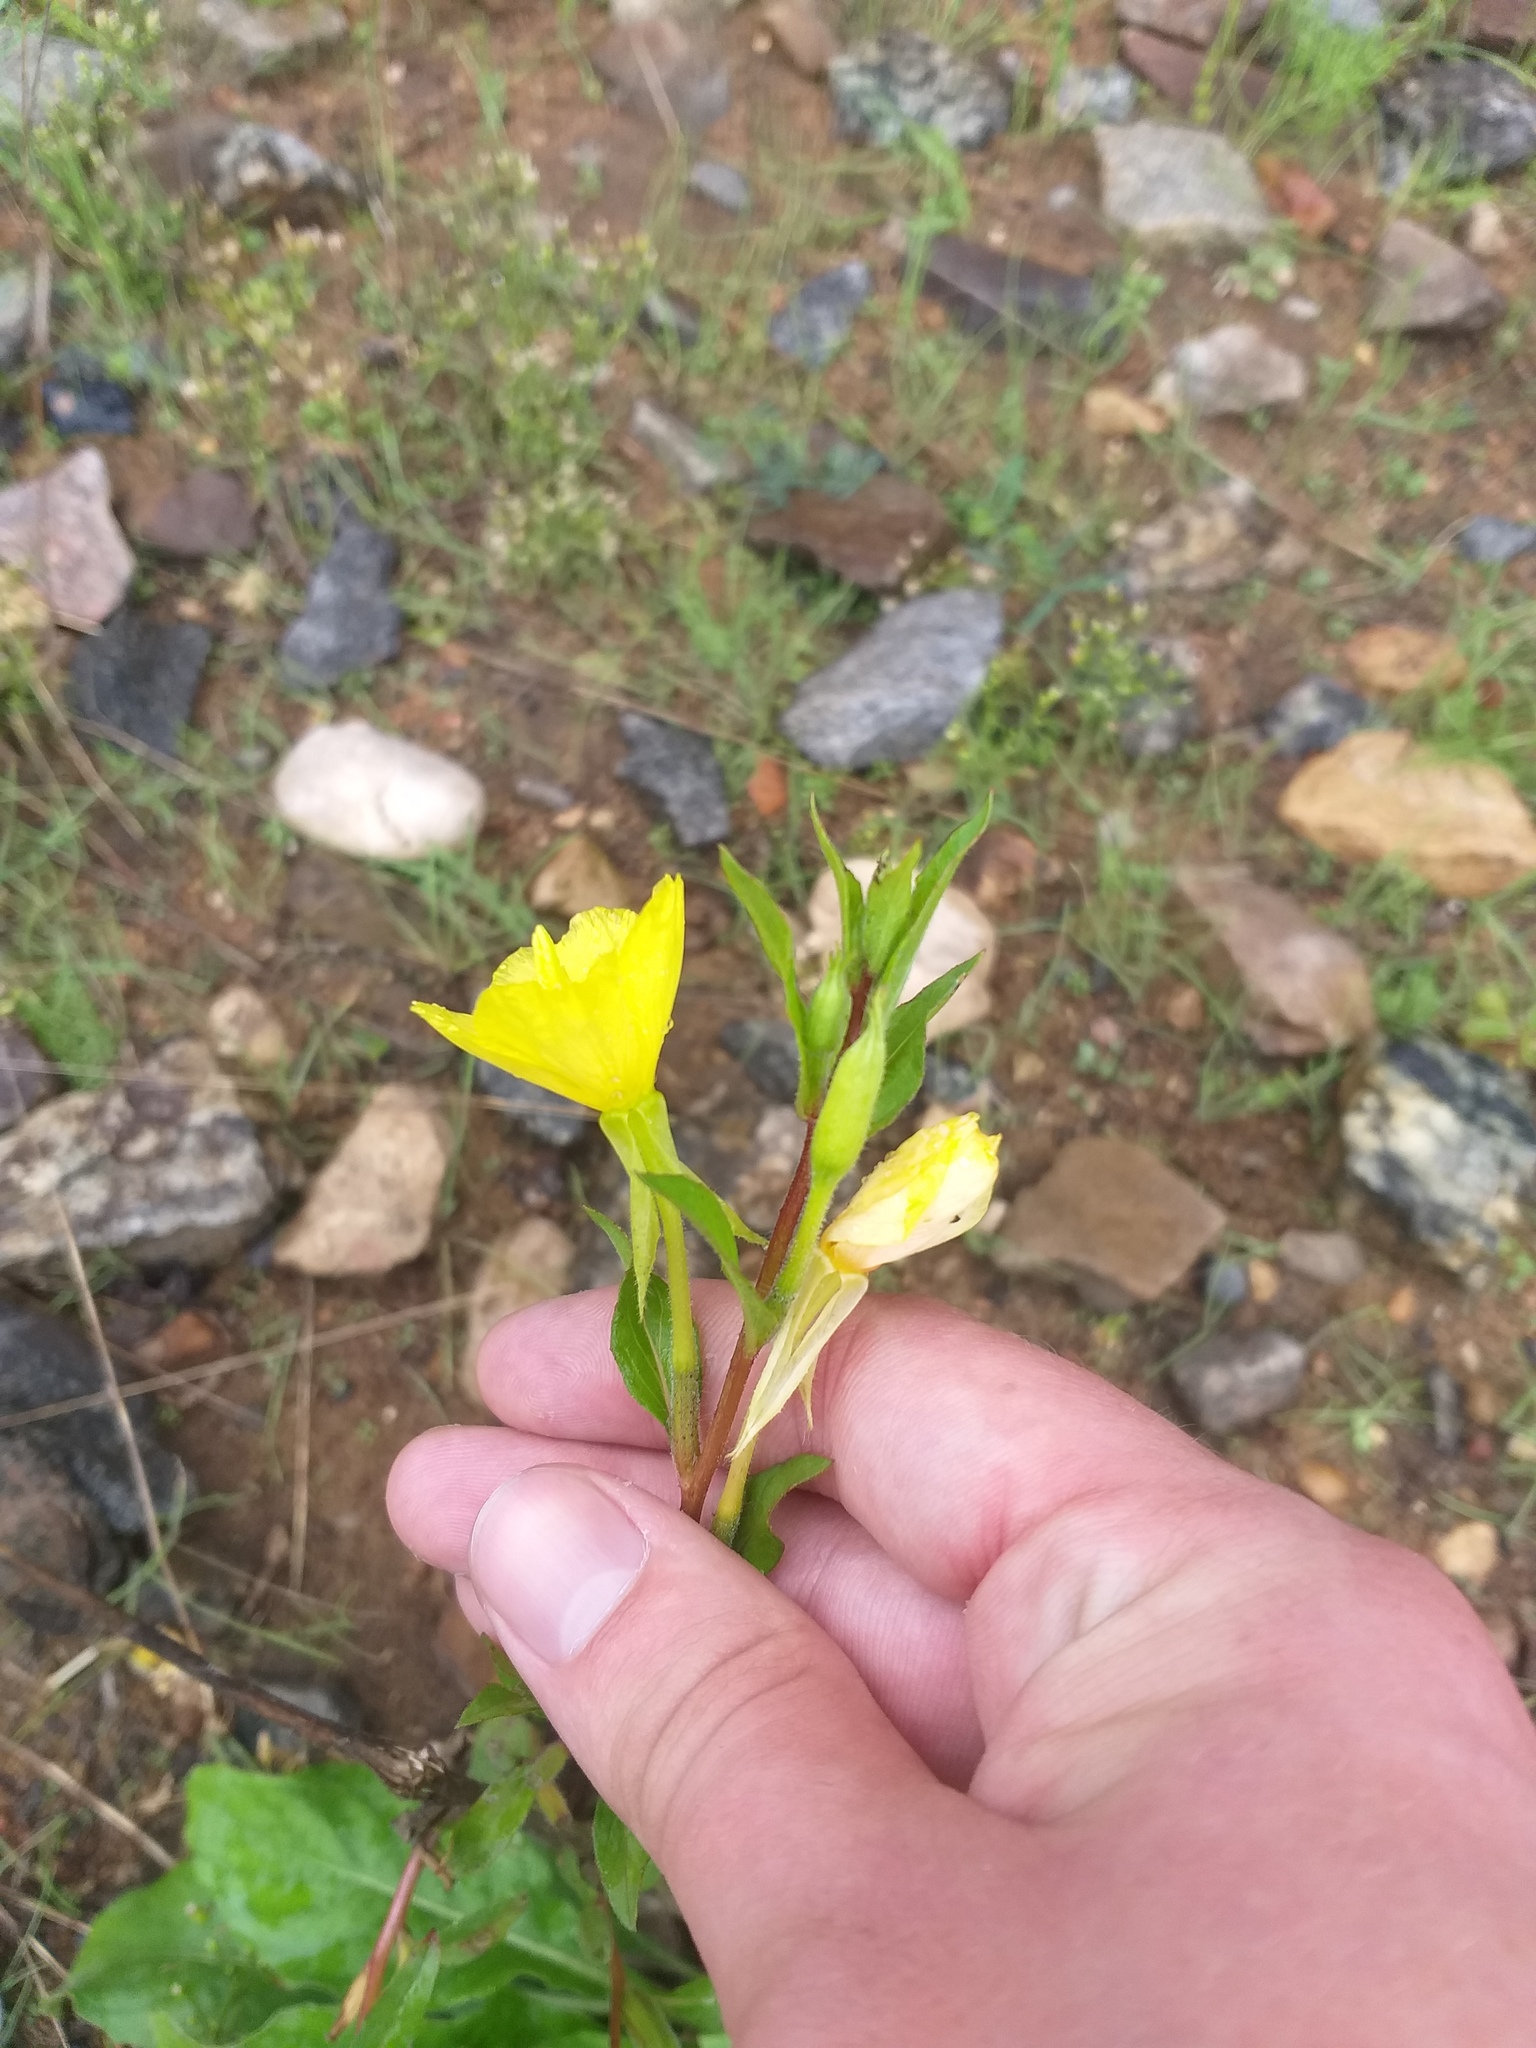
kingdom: Plantae
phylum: Tracheophyta
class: Magnoliopsida
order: Myrtales
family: Onagraceae
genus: Oenothera
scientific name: Oenothera rubricaulis
